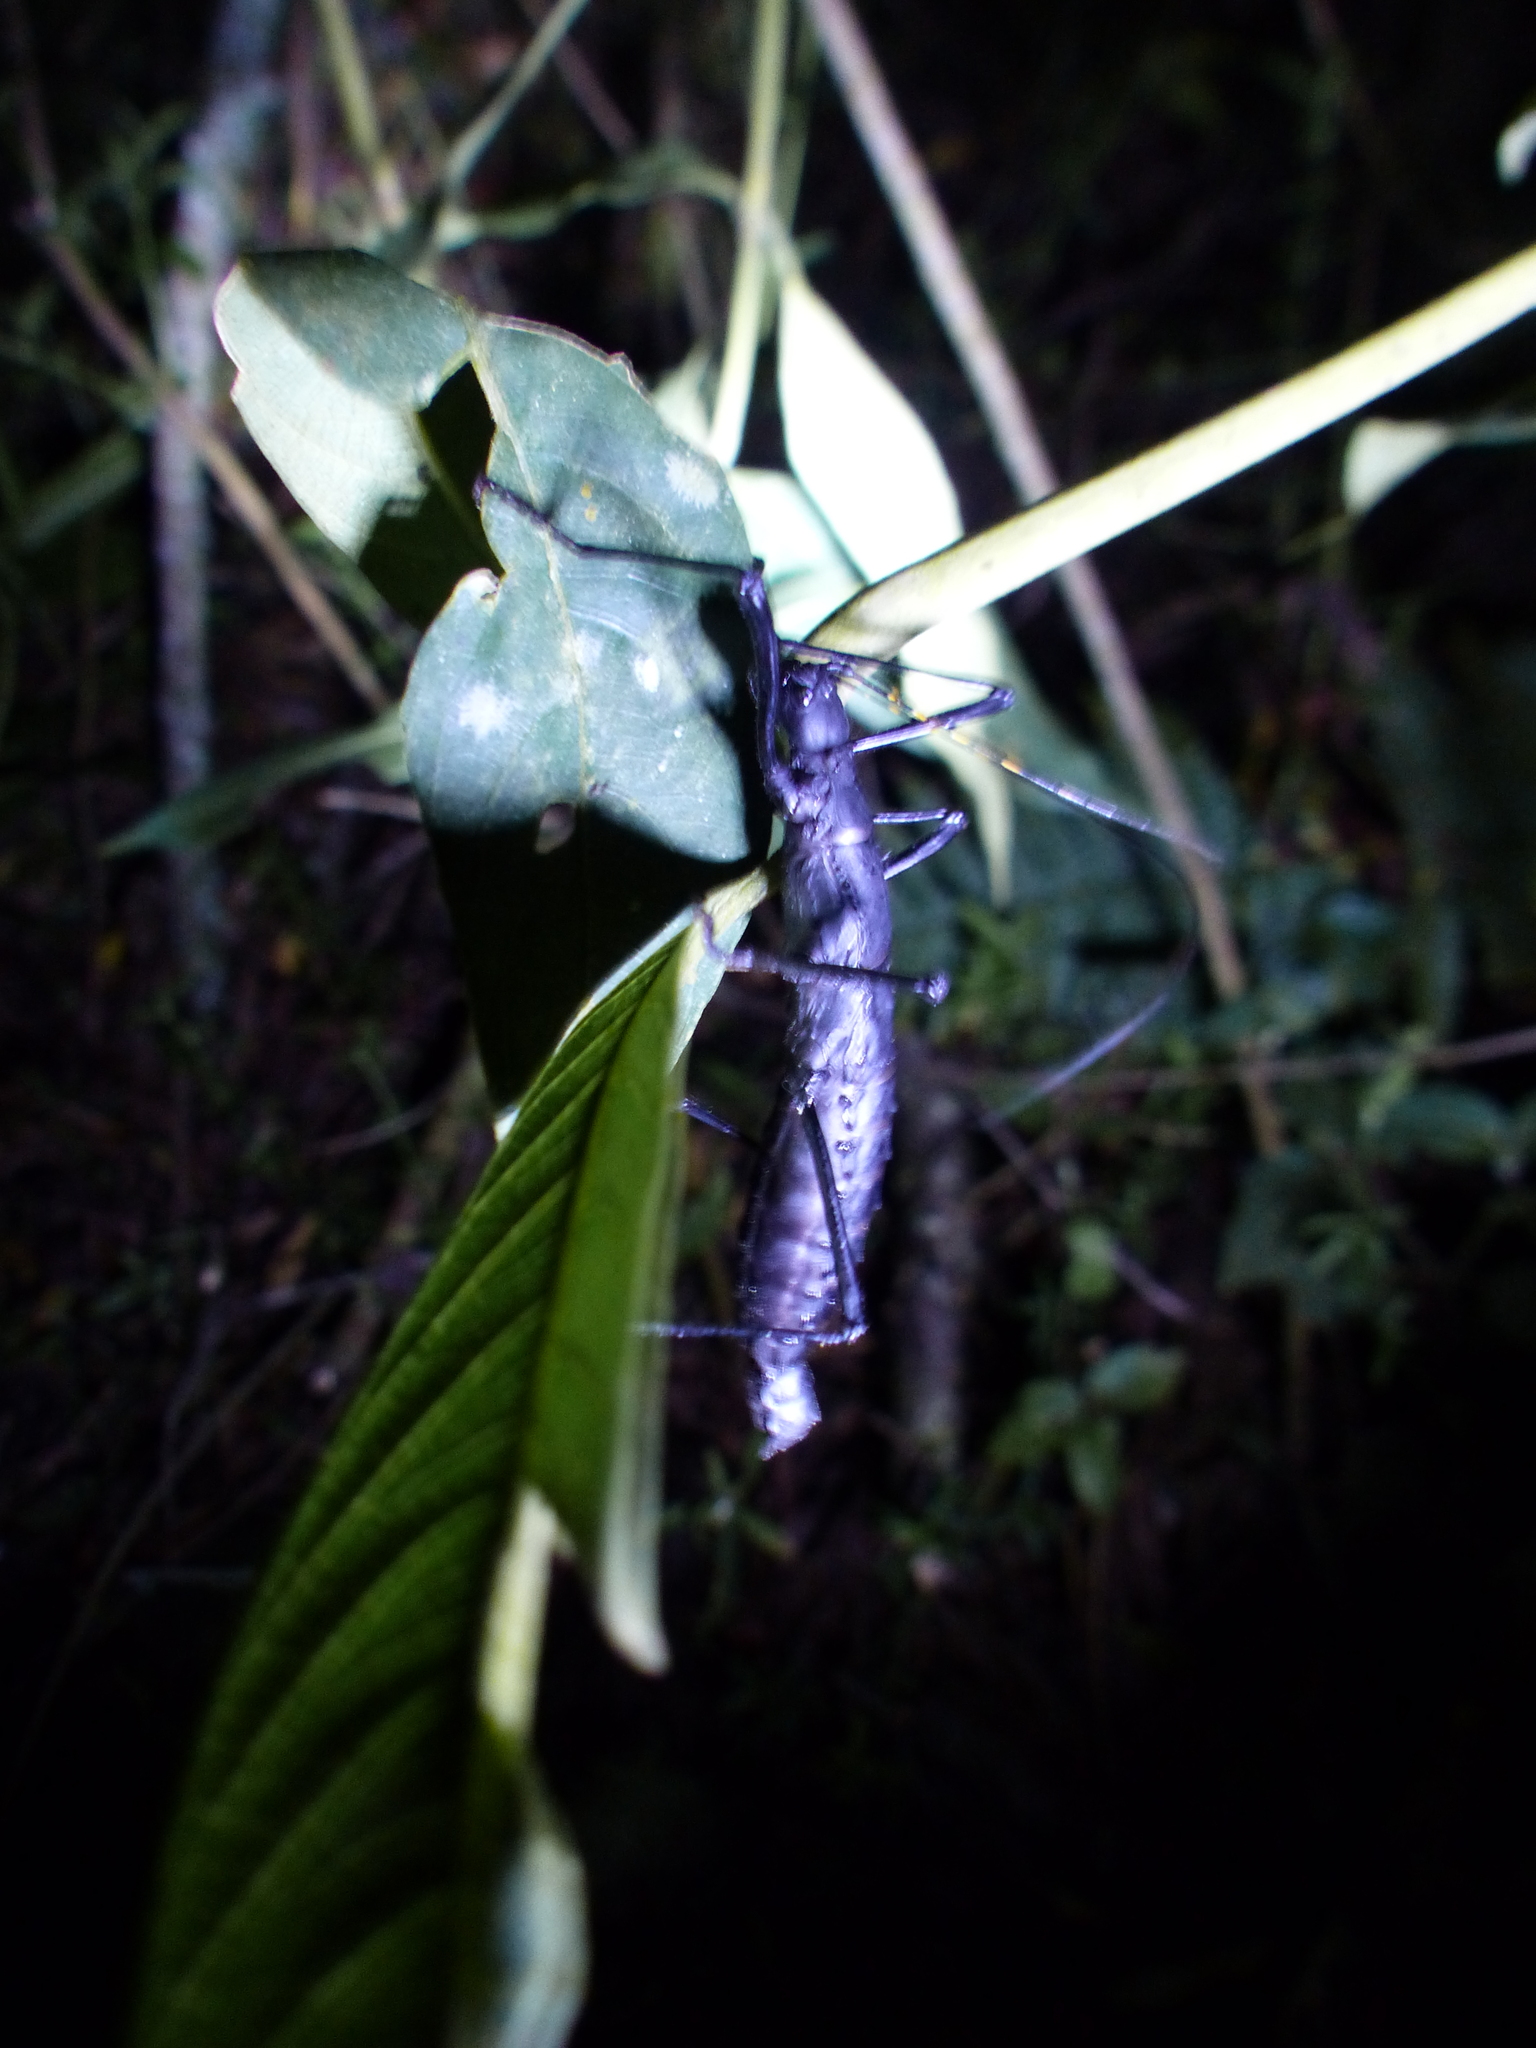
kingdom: Animalia
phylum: Arthropoda
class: Insecta
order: Phasmida
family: Pseudophasmatidae
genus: Atratomorpha
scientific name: Atratomorpha similia
